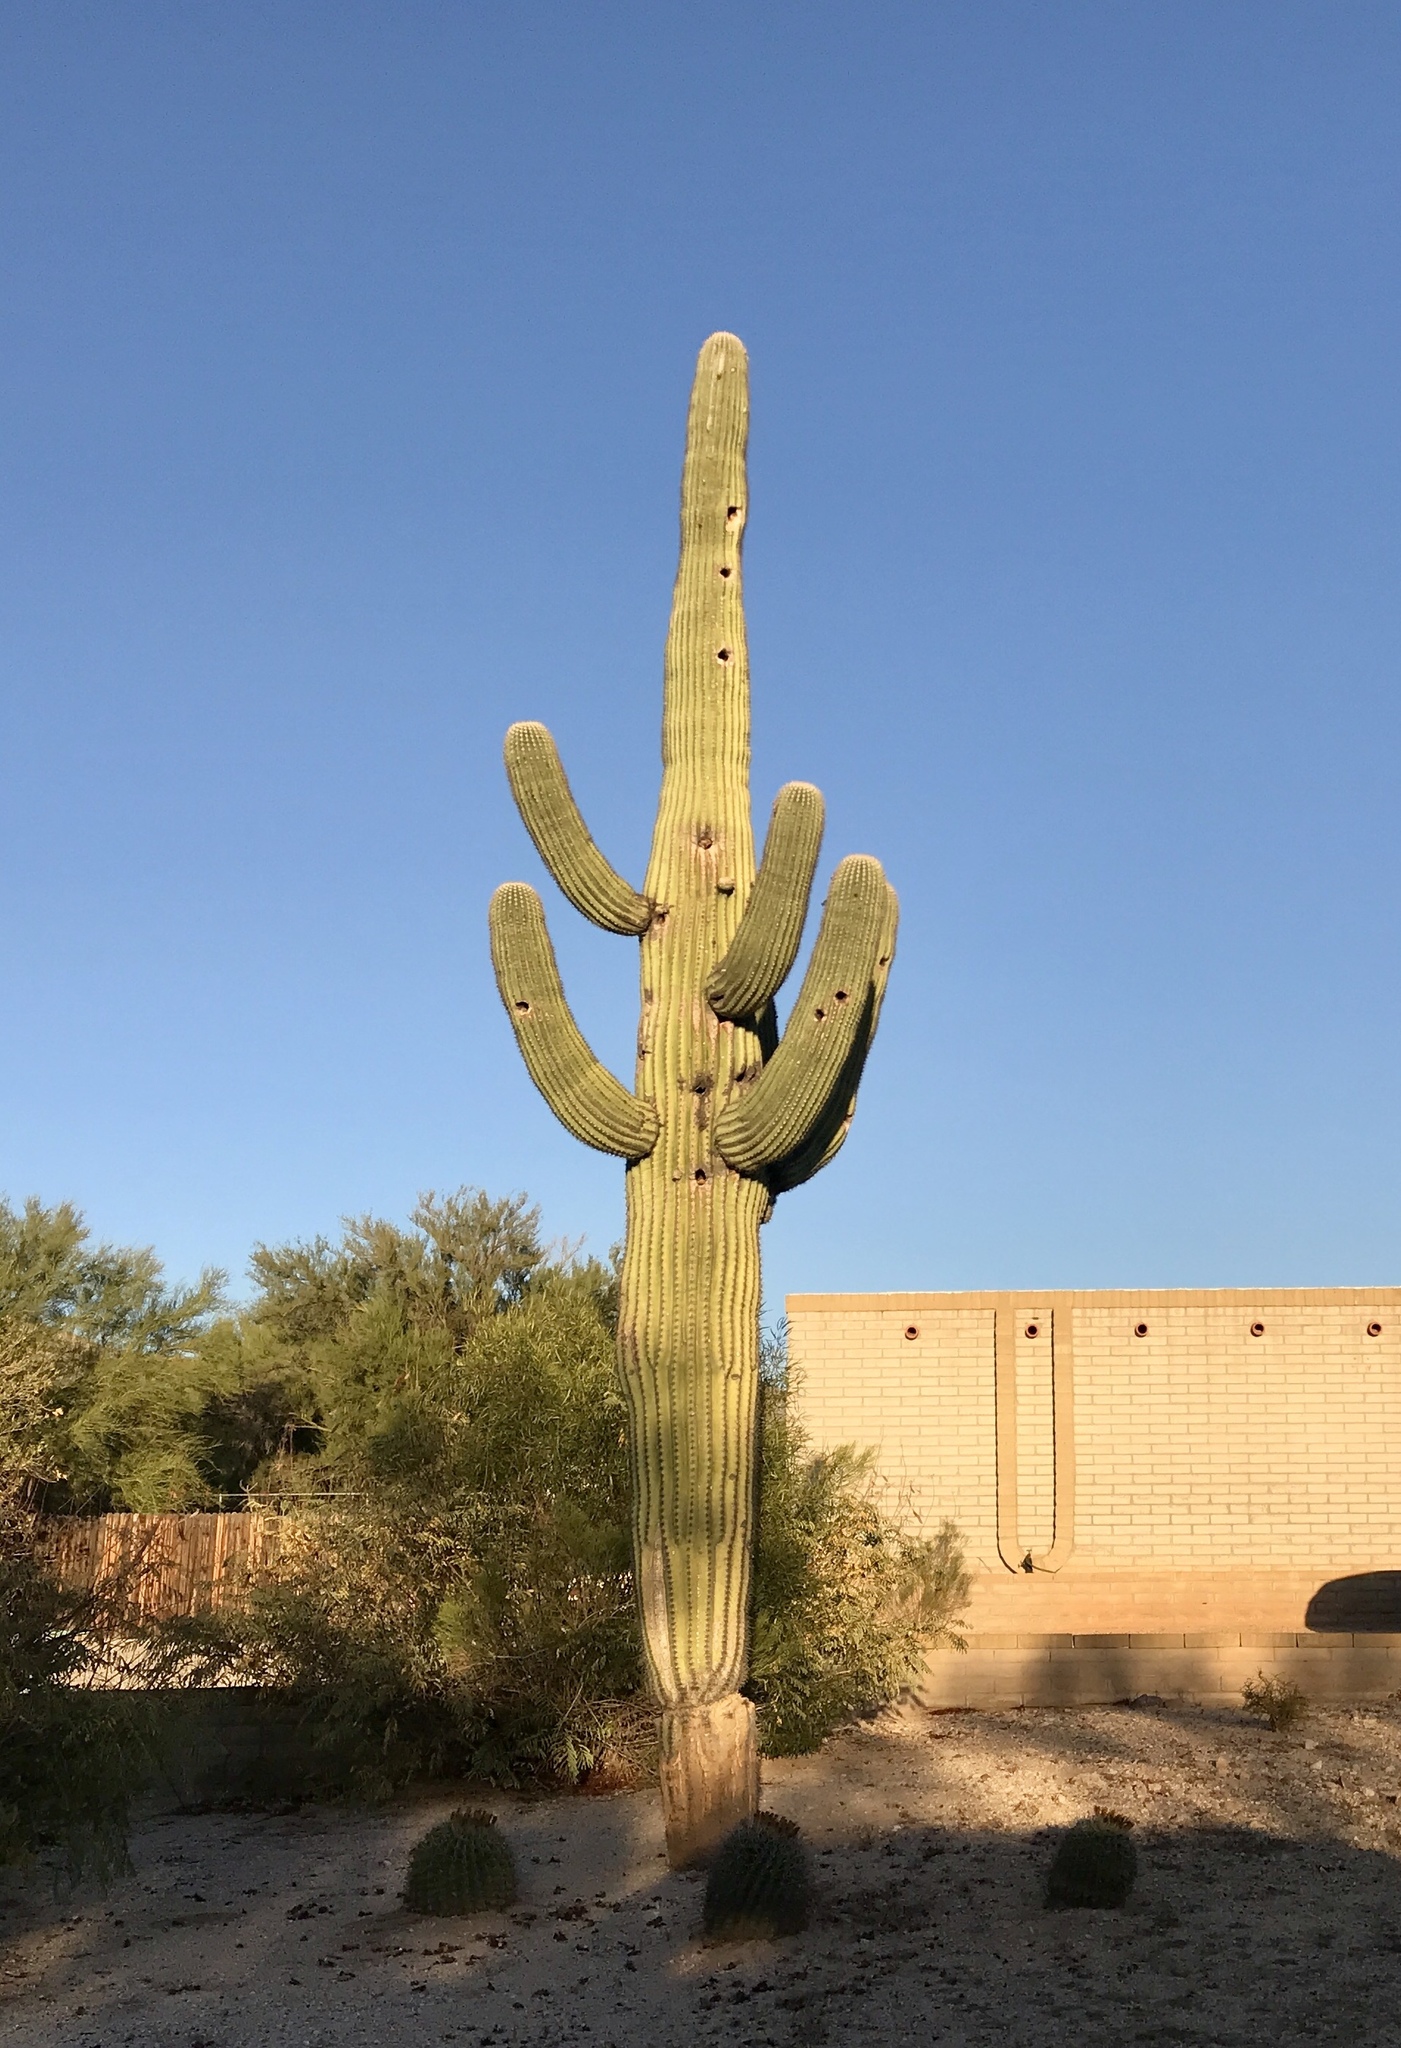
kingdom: Plantae
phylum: Tracheophyta
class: Magnoliopsida
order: Caryophyllales
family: Cactaceae
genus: Carnegiea
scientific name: Carnegiea gigantea
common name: Saguaro
